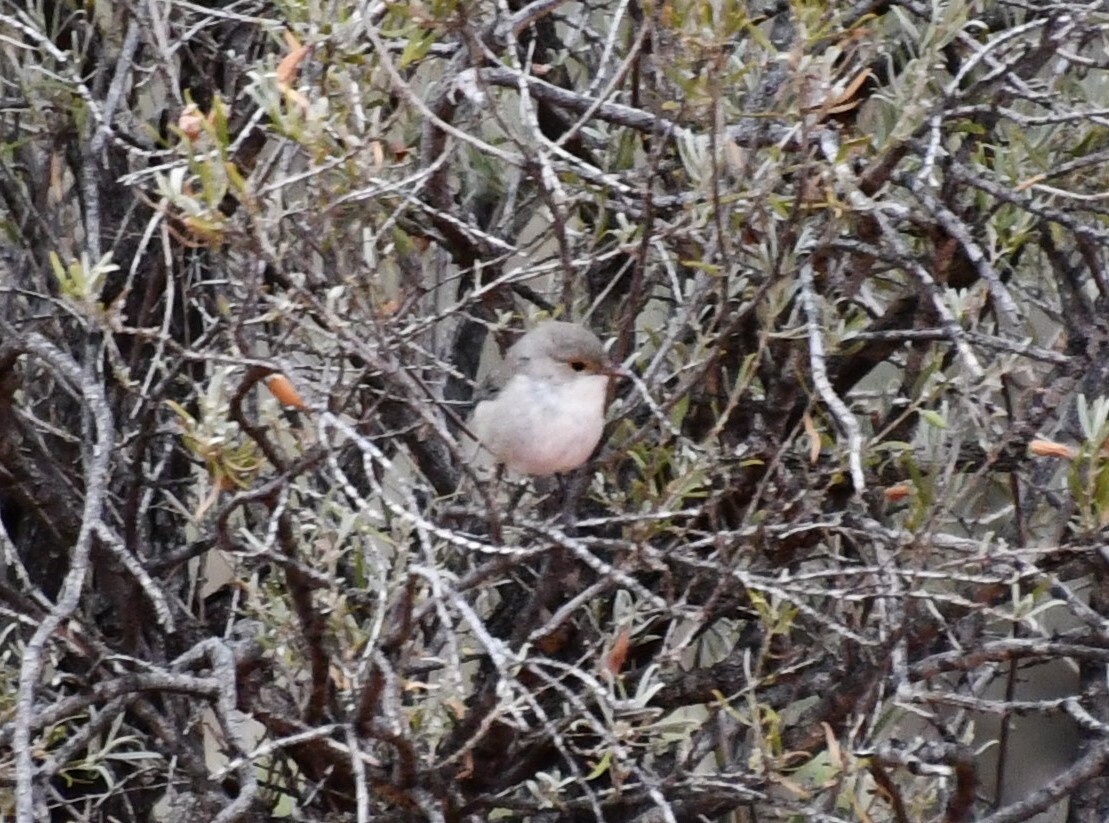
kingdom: Animalia
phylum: Chordata
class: Aves
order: Passeriformes
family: Maluridae
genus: Malurus
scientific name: Malurus splendens
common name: Splendid fairywren
